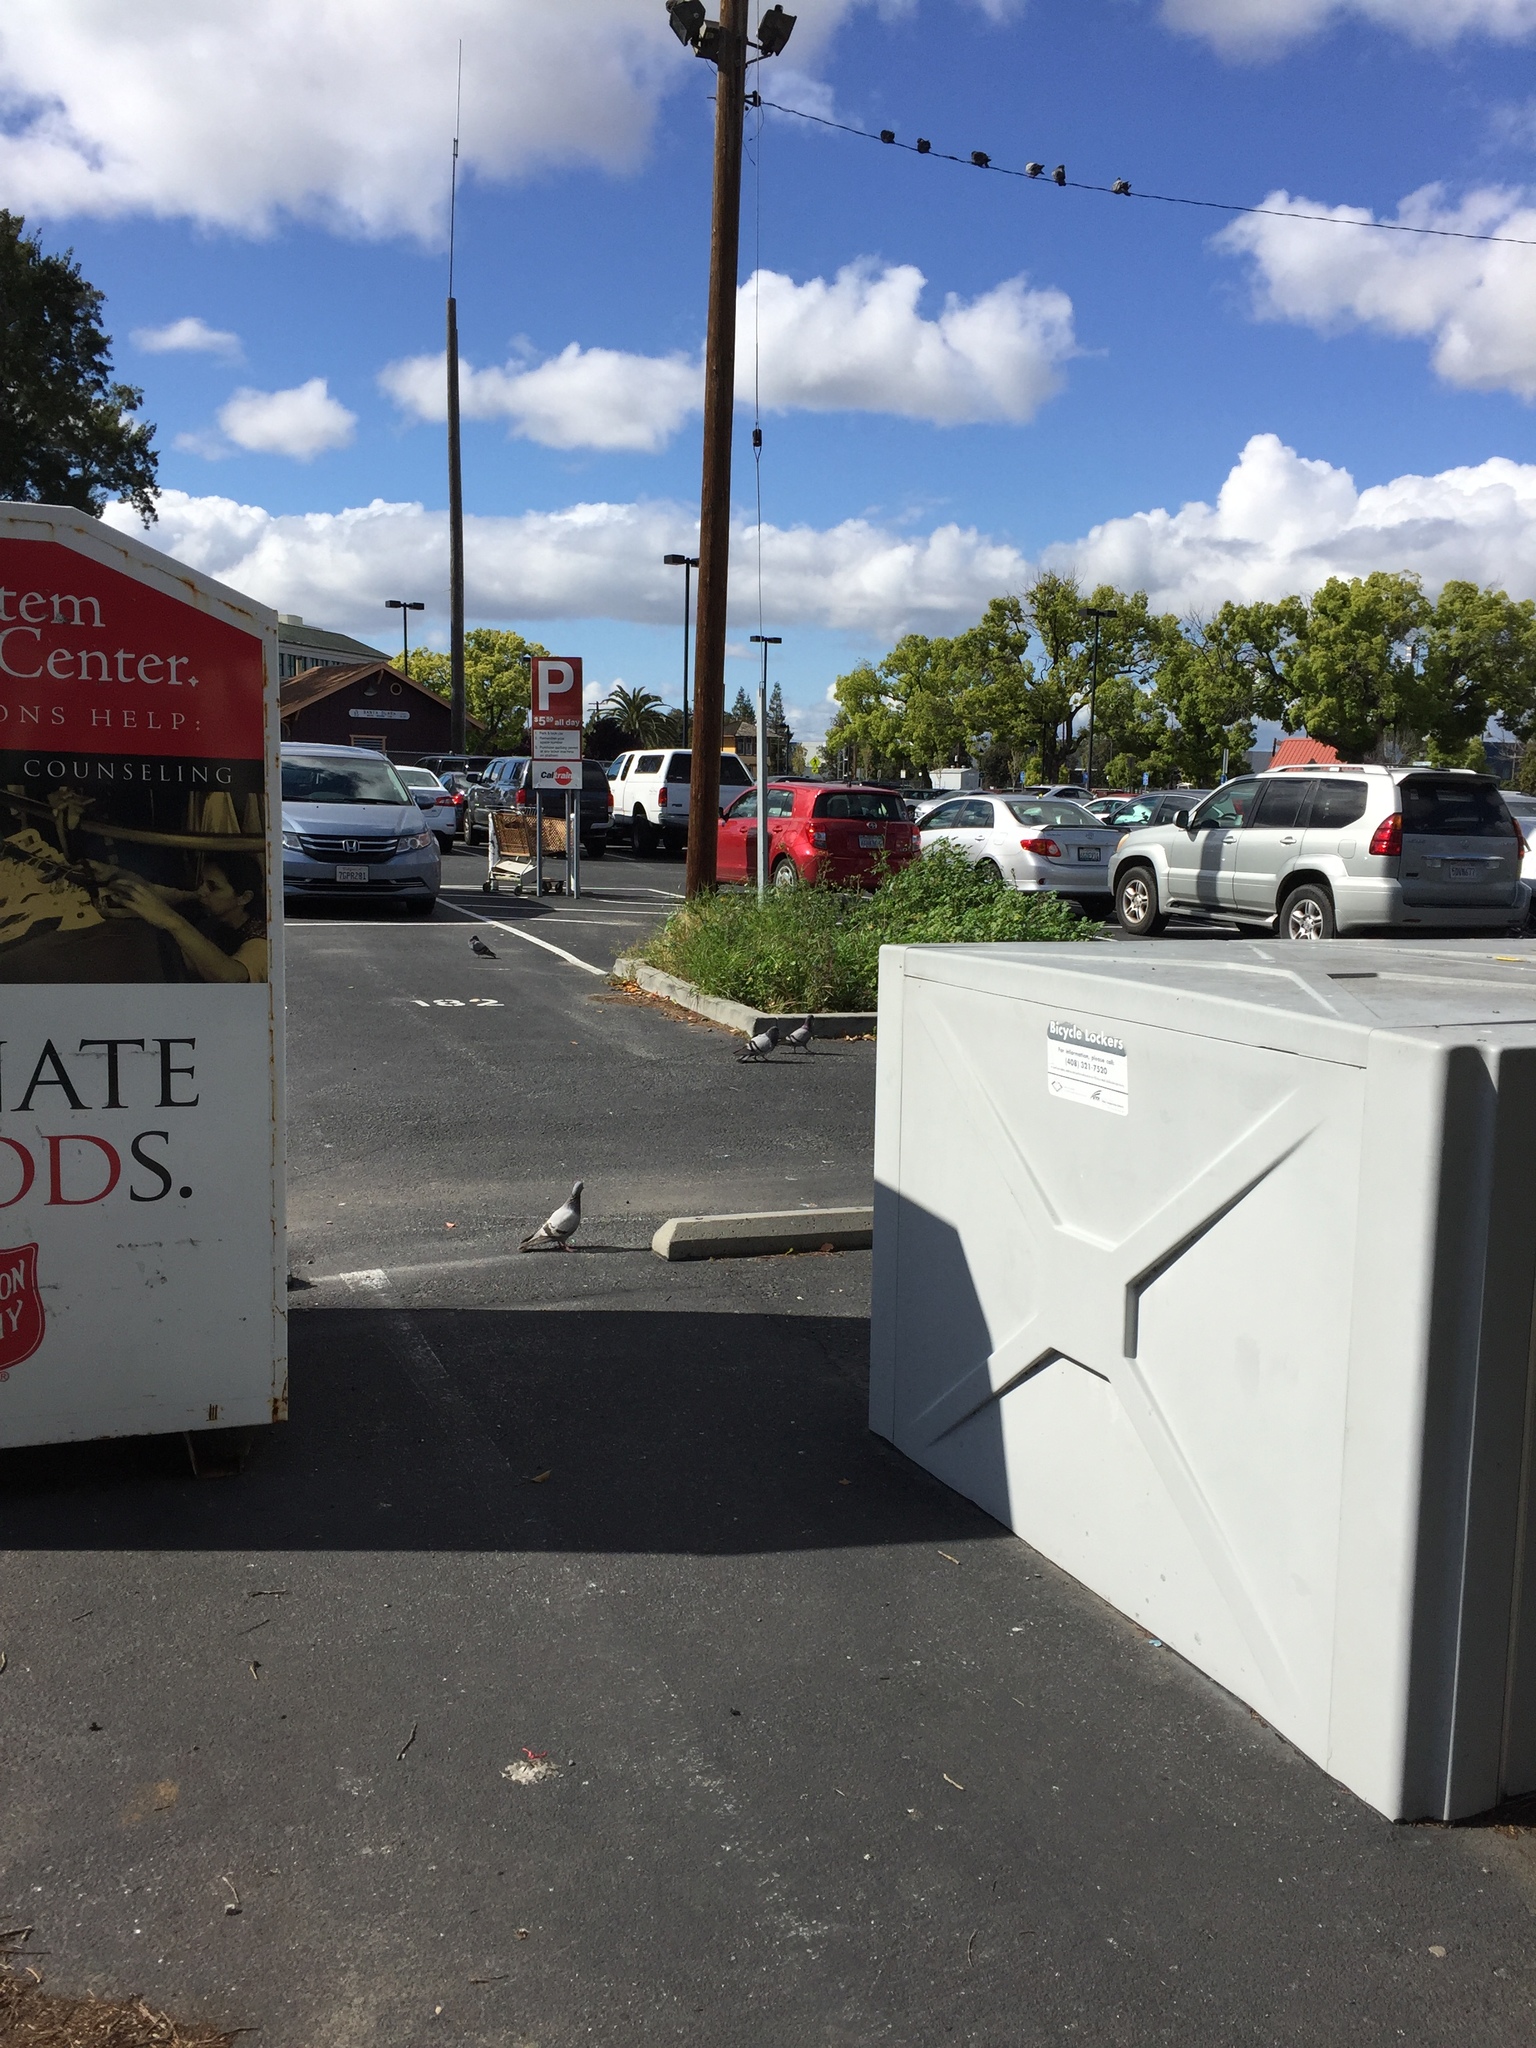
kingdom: Animalia
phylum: Chordata
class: Aves
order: Columbiformes
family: Columbidae
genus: Columba
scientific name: Columba livia
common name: Rock pigeon
